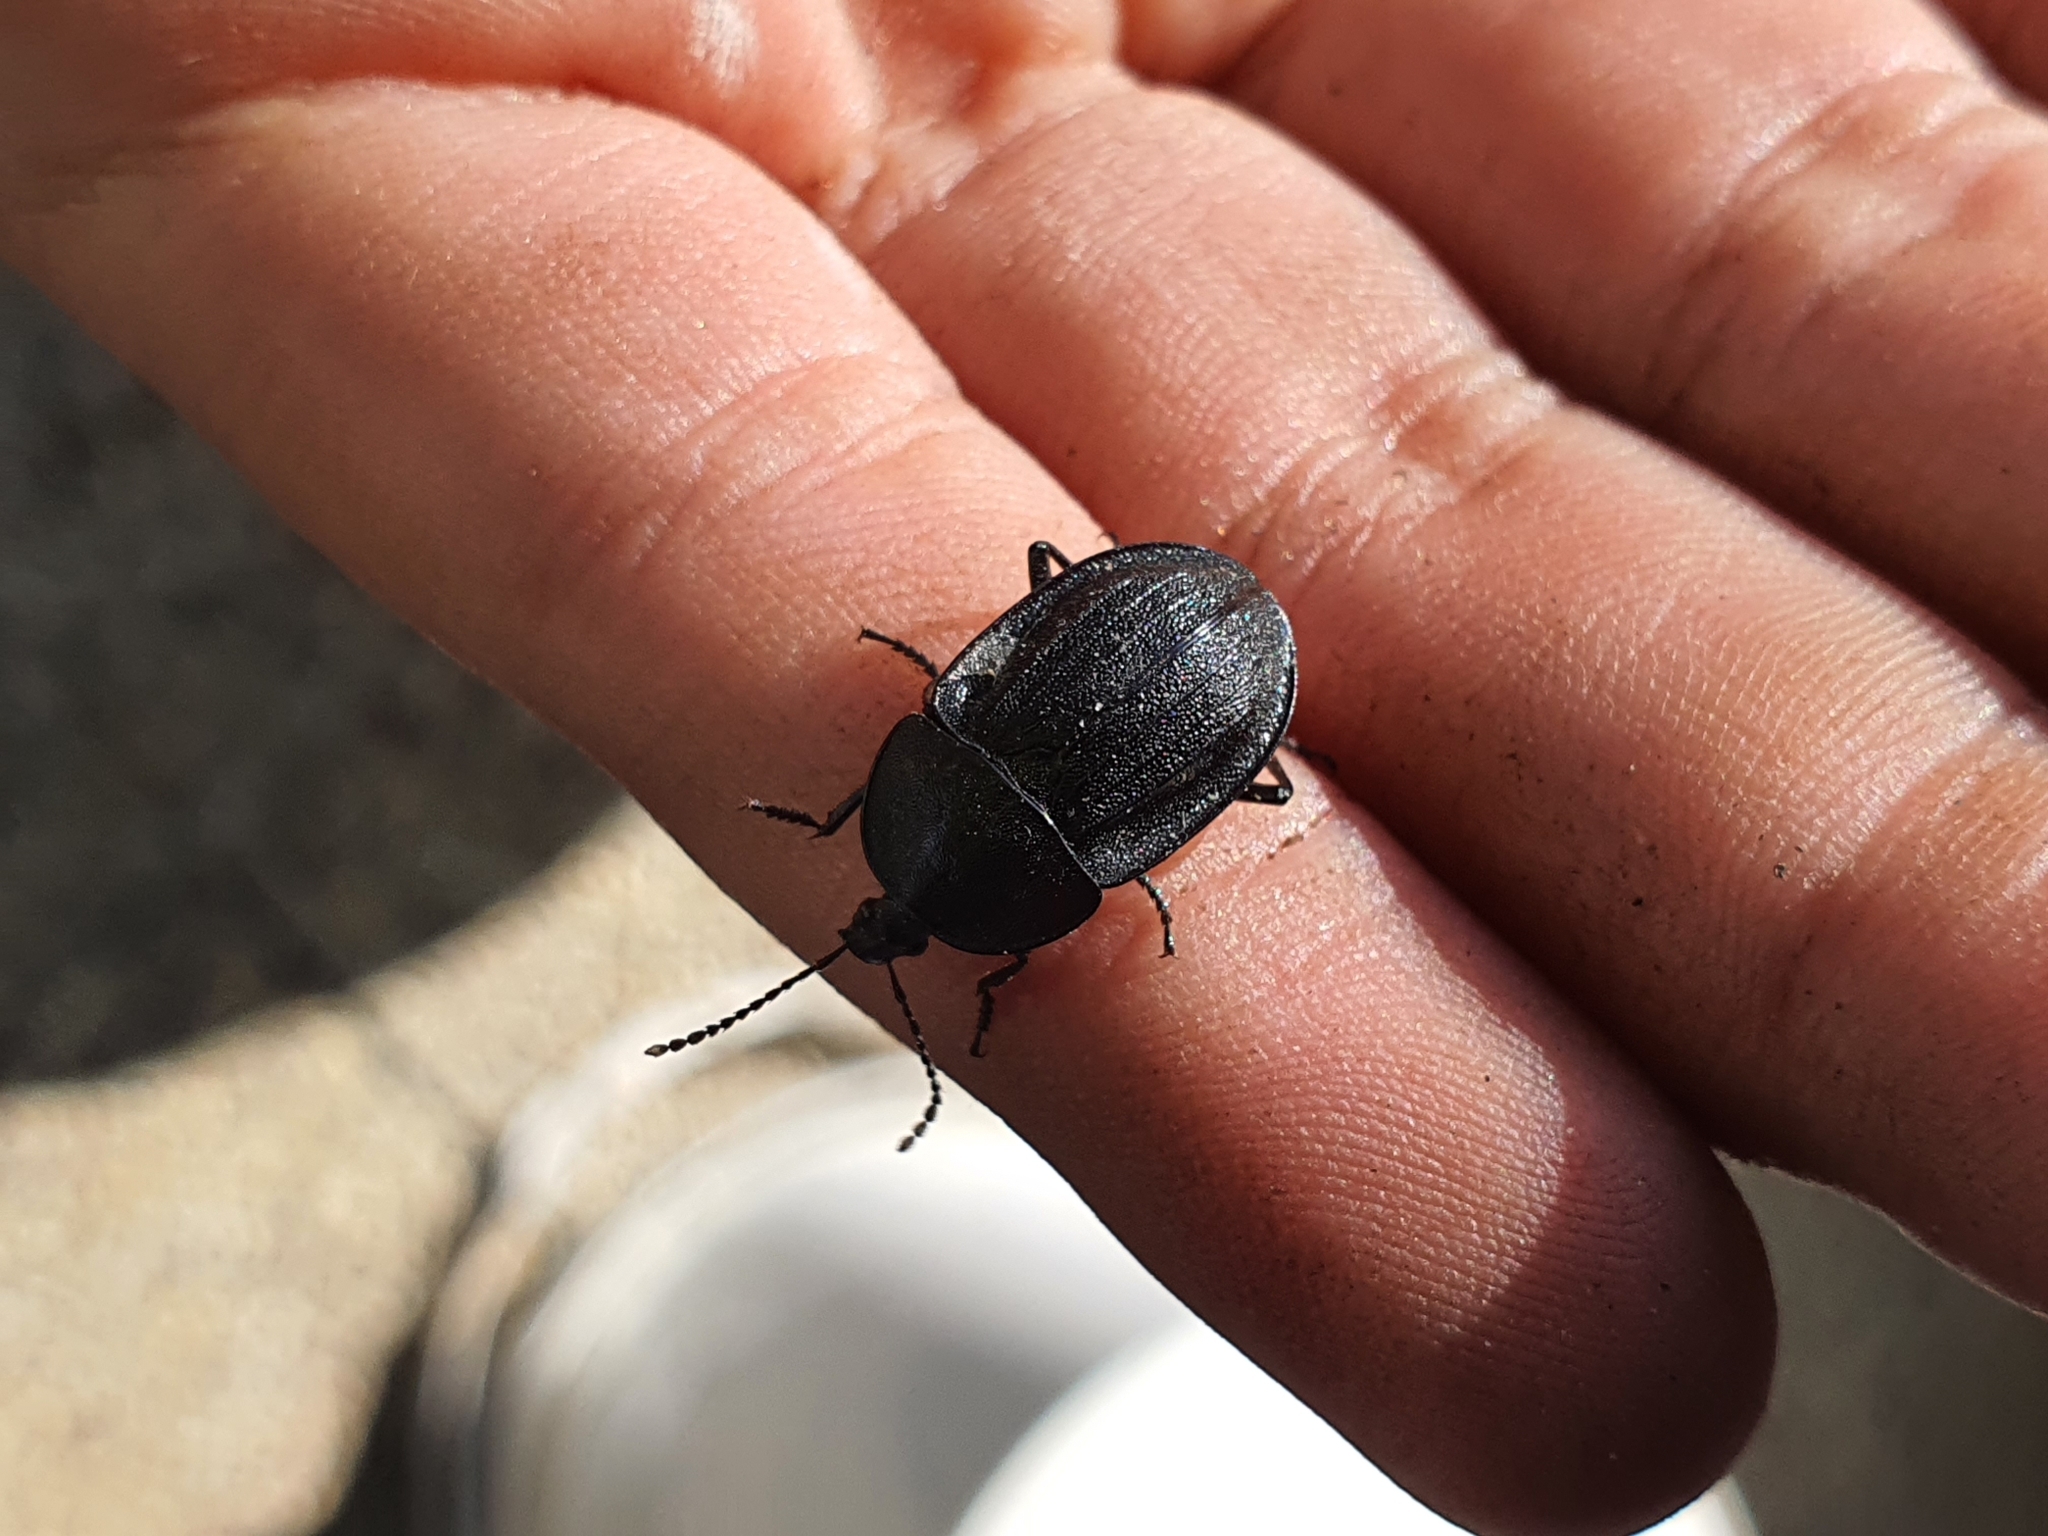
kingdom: Animalia
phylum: Arthropoda
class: Insecta
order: Coleoptera
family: Staphylinidae
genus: Silpha
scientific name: Silpha atrata
